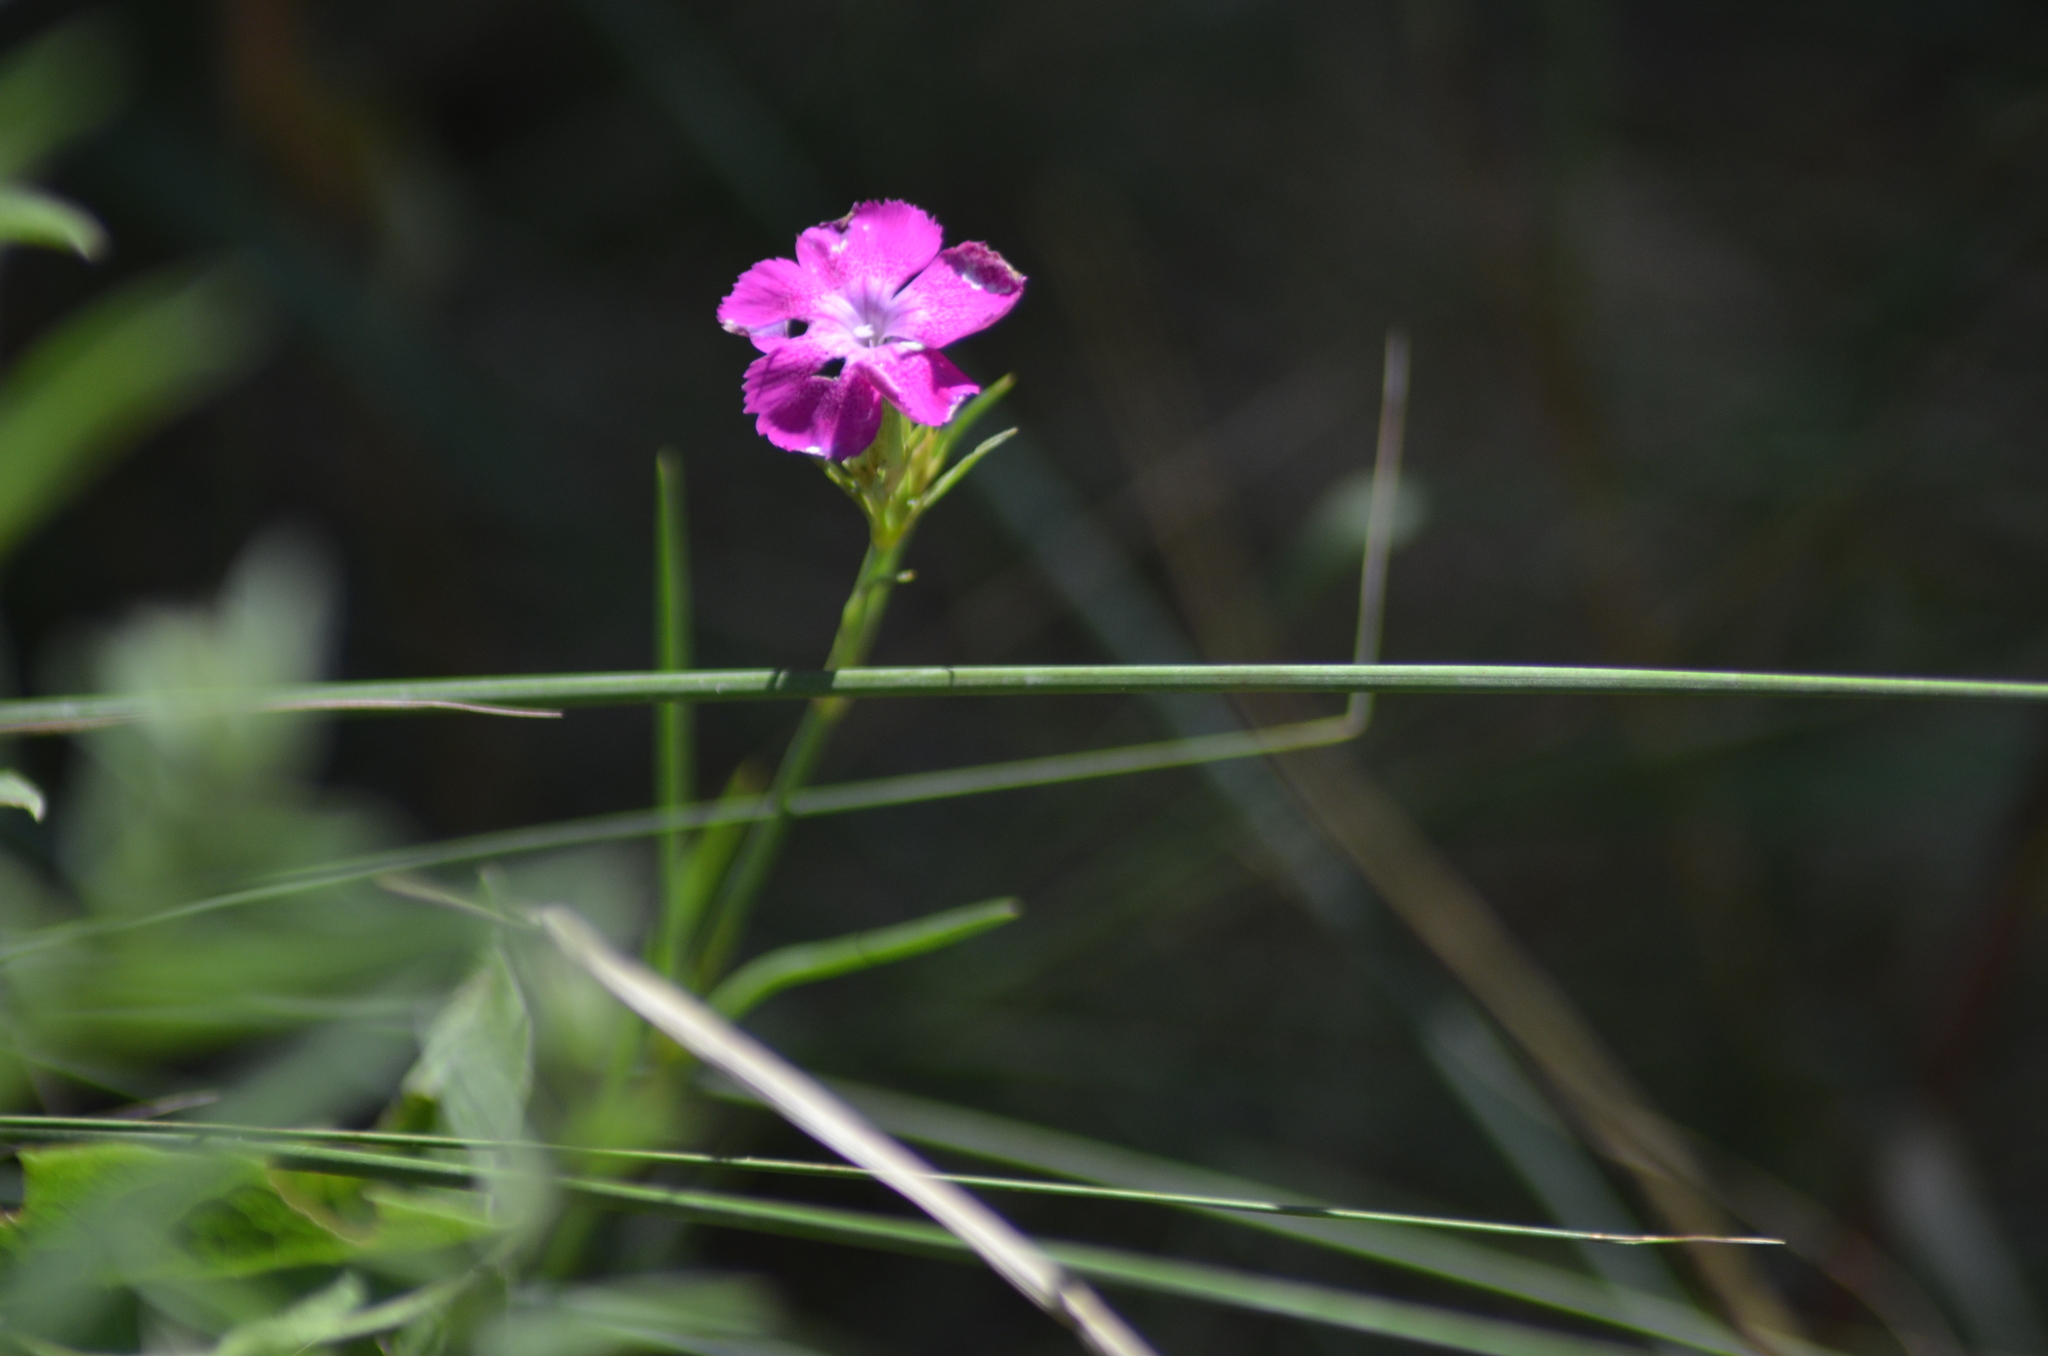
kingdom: Plantae
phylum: Tracheophyta
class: Magnoliopsida
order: Caryophyllales
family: Caryophyllaceae
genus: Dianthus
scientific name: Dianthus seguieri
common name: Ragged pink
